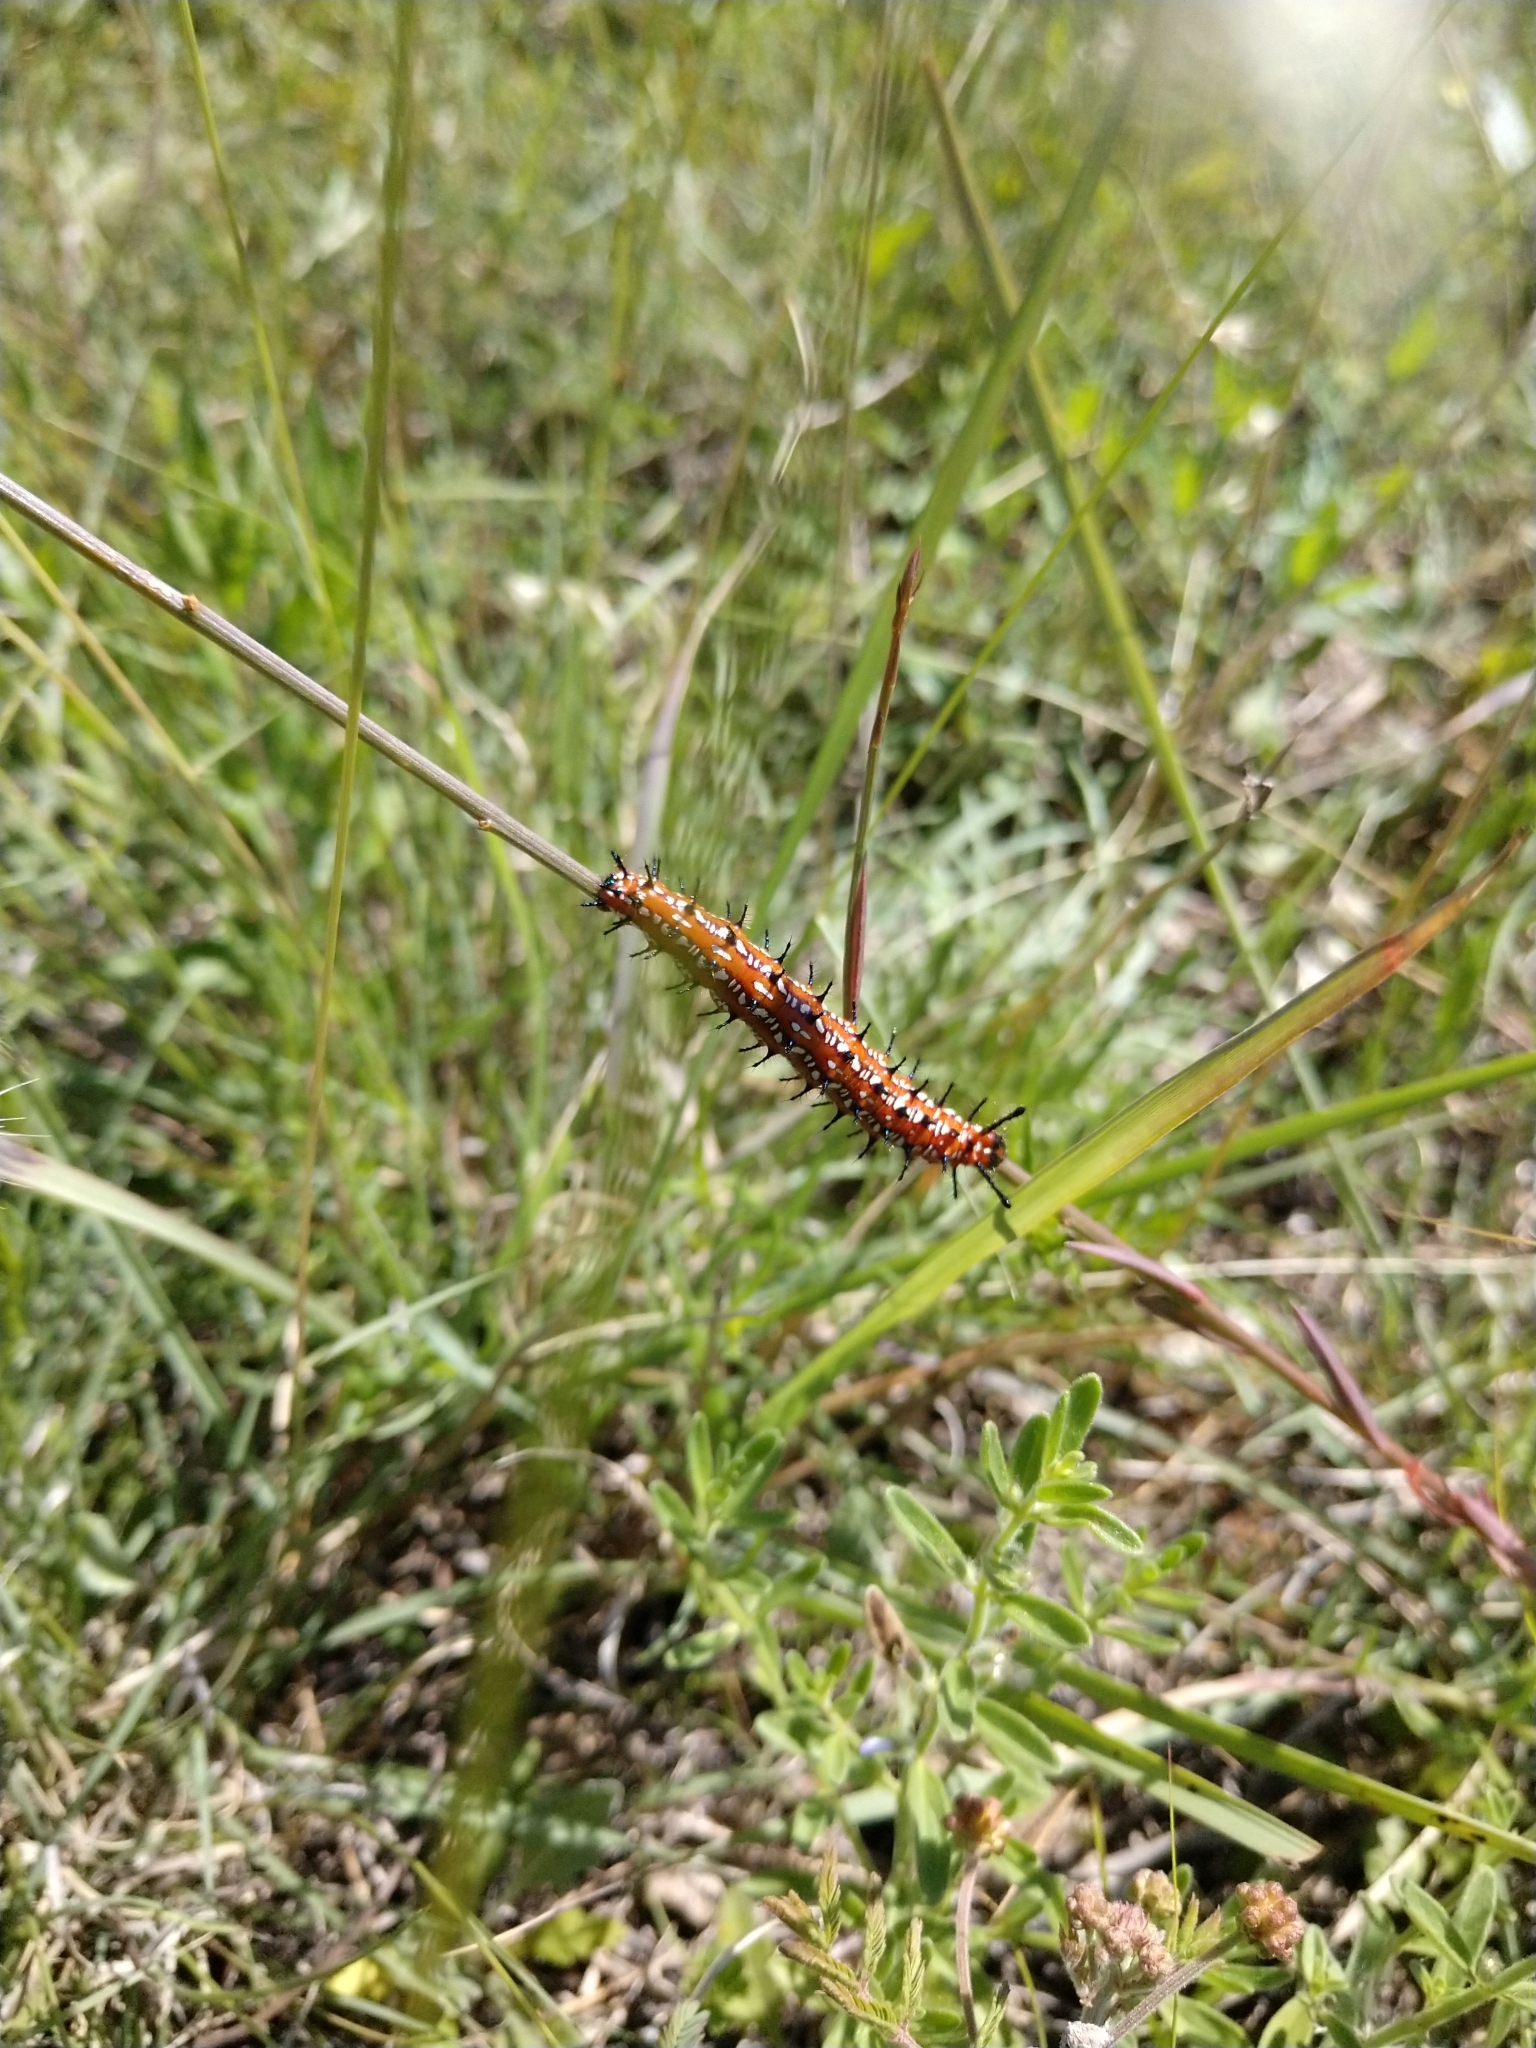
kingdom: Animalia
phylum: Arthropoda
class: Insecta
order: Lepidoptera
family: Nymphalidae
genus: Euptoieta
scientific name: Euptoieta claudia
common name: Variegated fritillary
